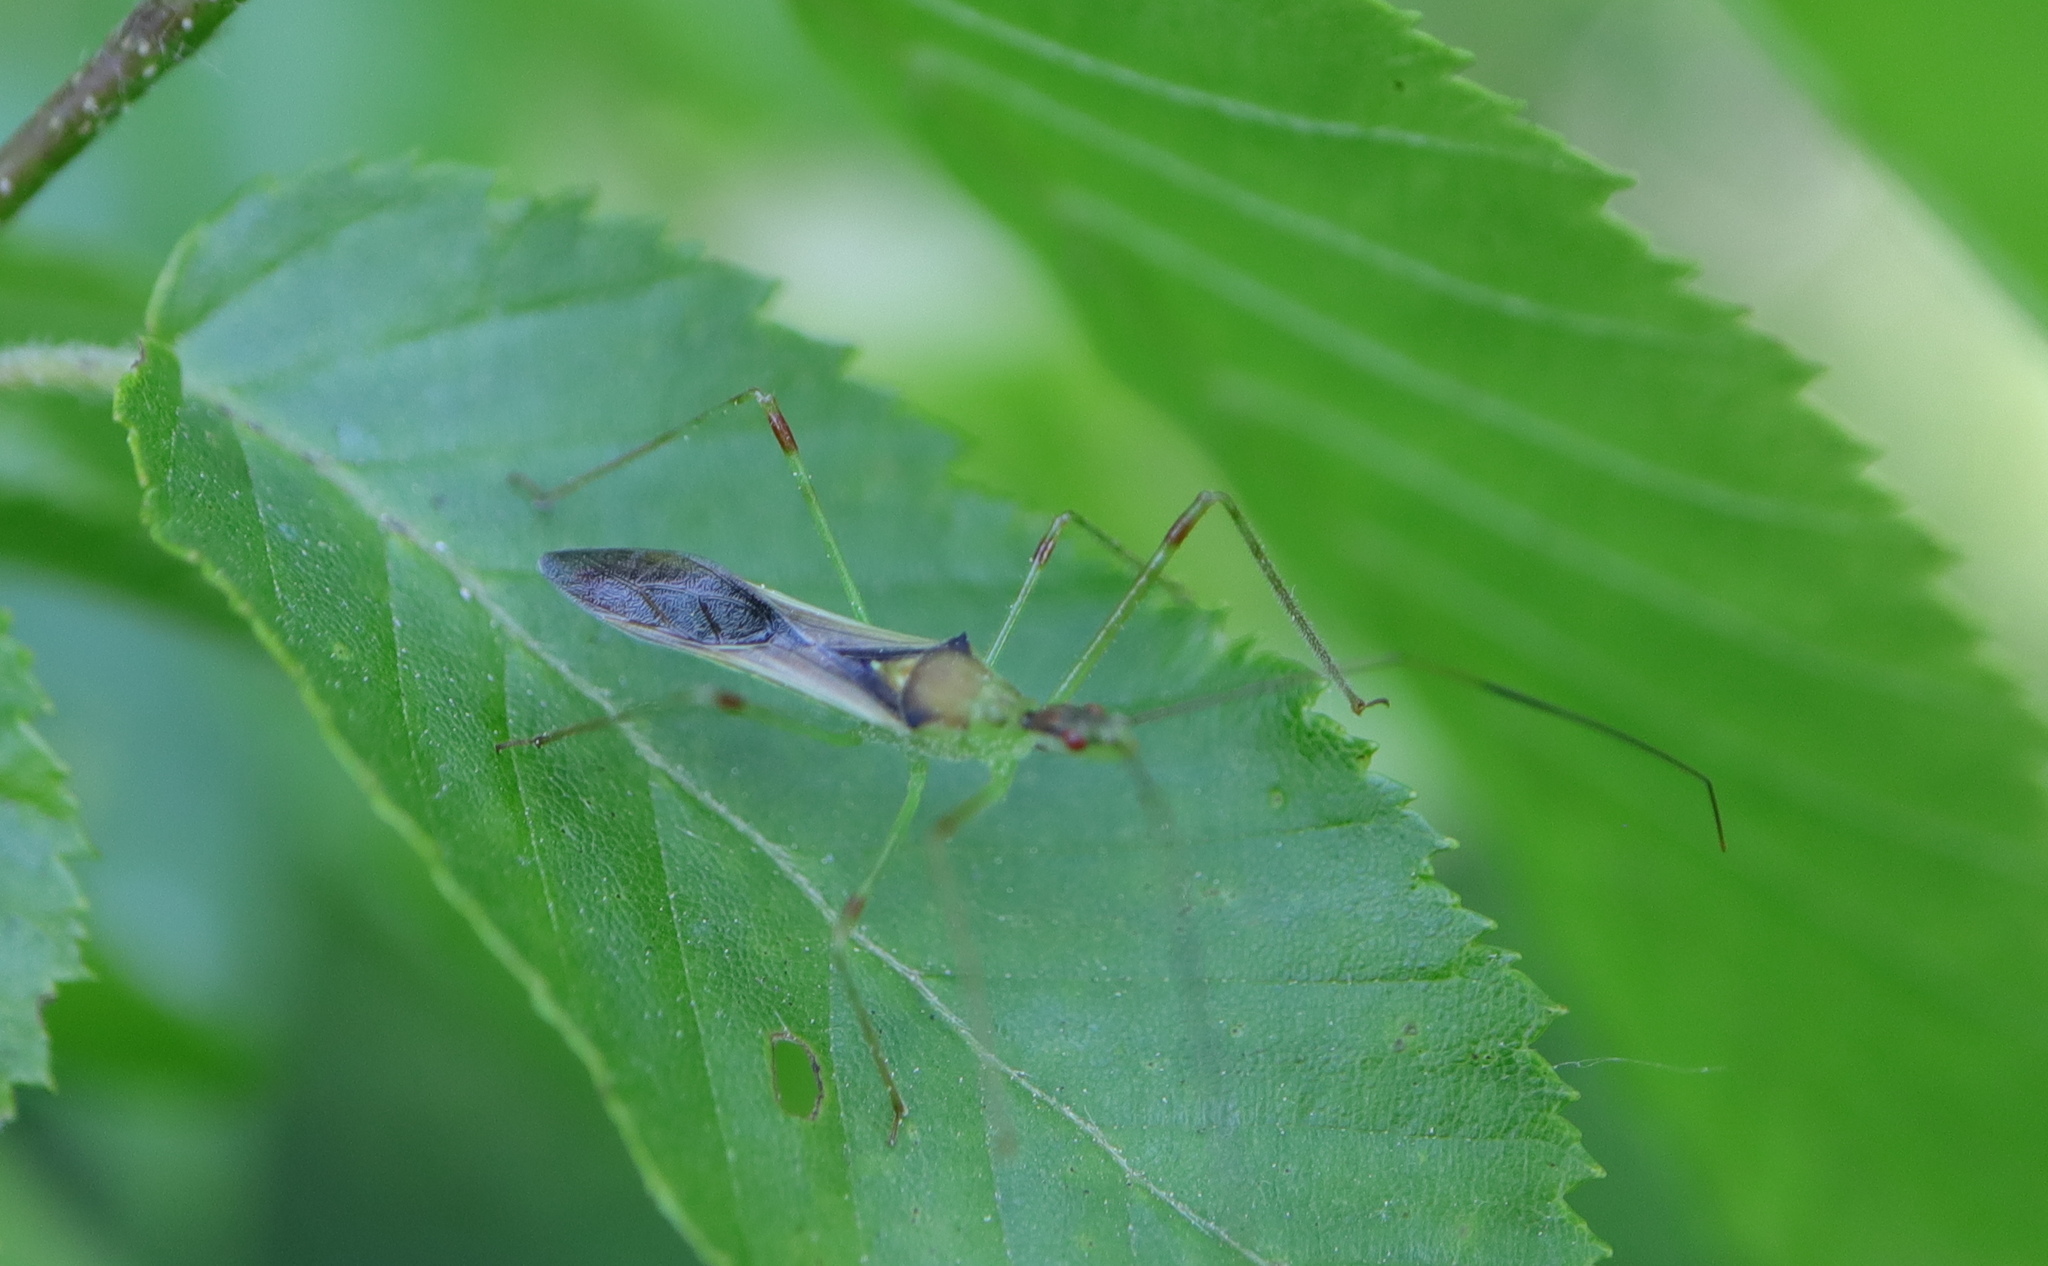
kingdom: Animalia
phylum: Arthropoda
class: Insecta
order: Hemiptera
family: Reduviidae
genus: Zelus
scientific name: Zelus luridus
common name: Pale green assassin bug
